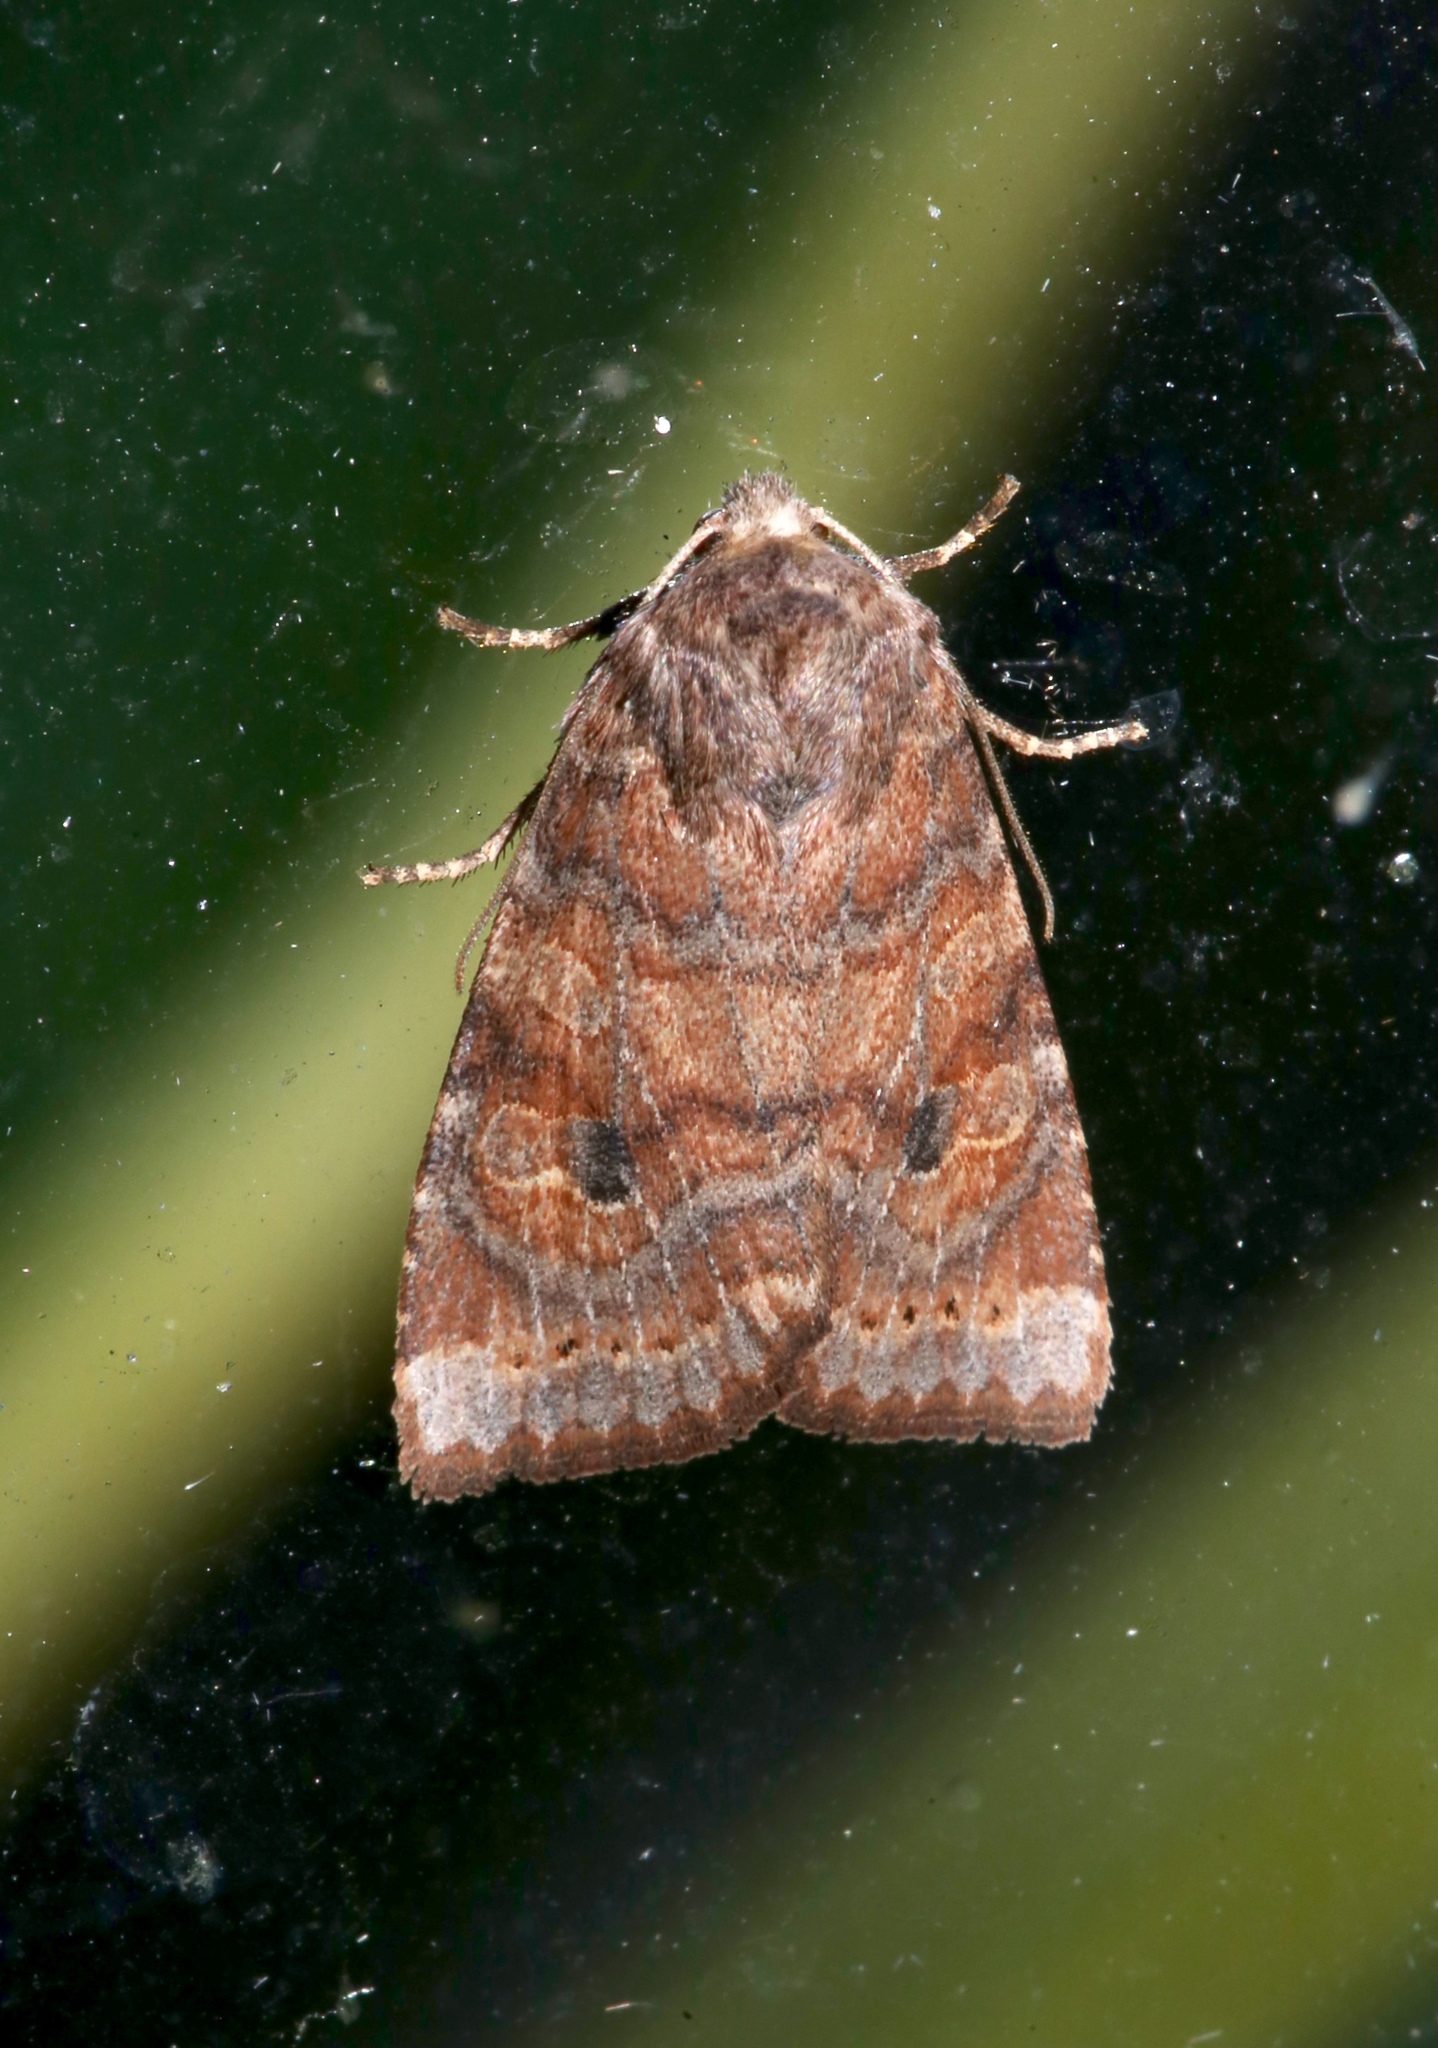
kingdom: Animalia
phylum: Arthropoda
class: Insecta
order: Lepidoptera
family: Noctuidae
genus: Anathix
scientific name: Anathix puta
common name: Puta sallow
